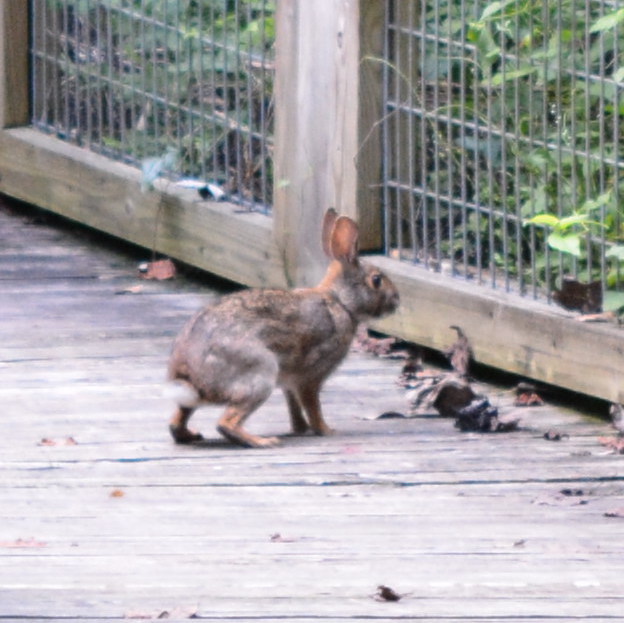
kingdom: Animalia
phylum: Chordata
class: Mammalia
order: Lagomorpha
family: Leporidae
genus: Sylvilagus
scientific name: Sylvilagus aquaticus
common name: Swamp rabbit
